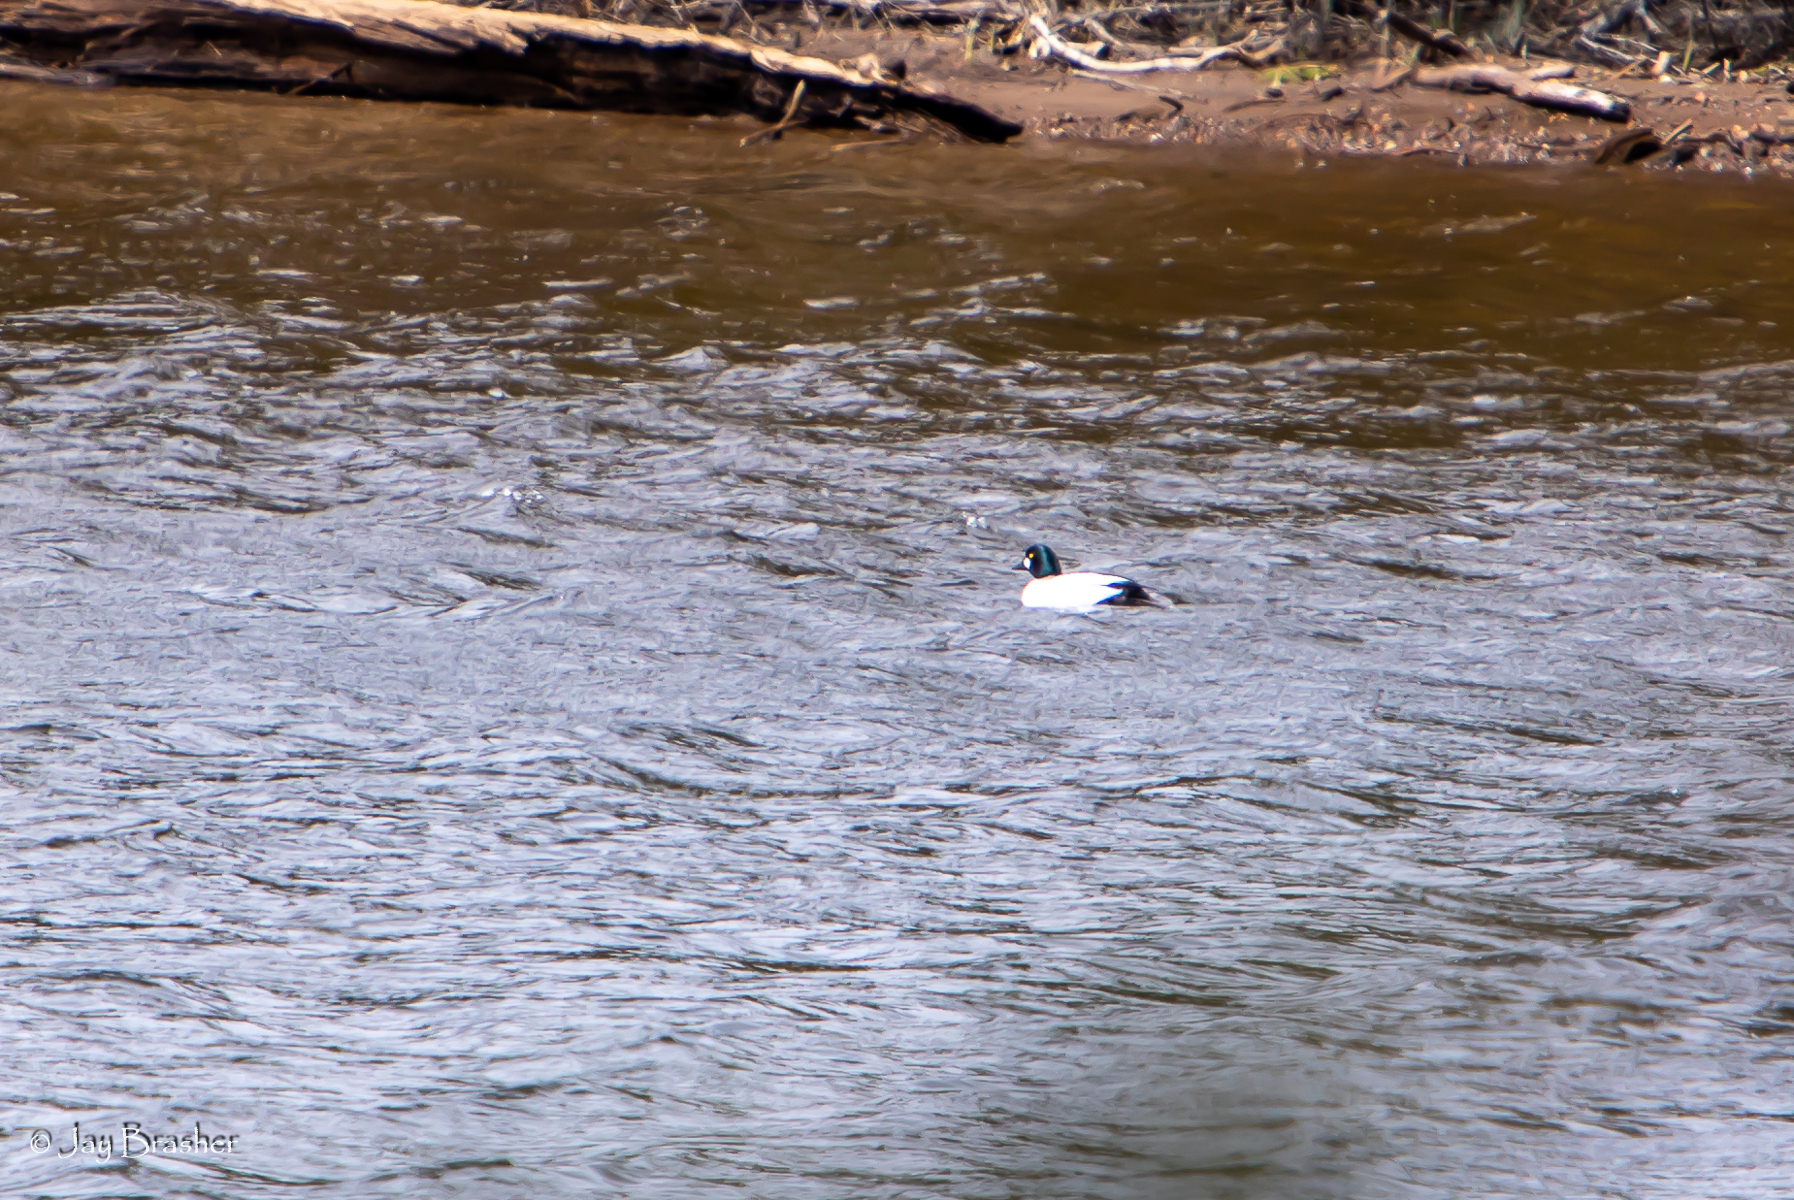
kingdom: Animalia
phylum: Chordata
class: Aves
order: Anseriformes
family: Anatidae
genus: Bucephala
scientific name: Bucephala clangula
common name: Common goldeneye
